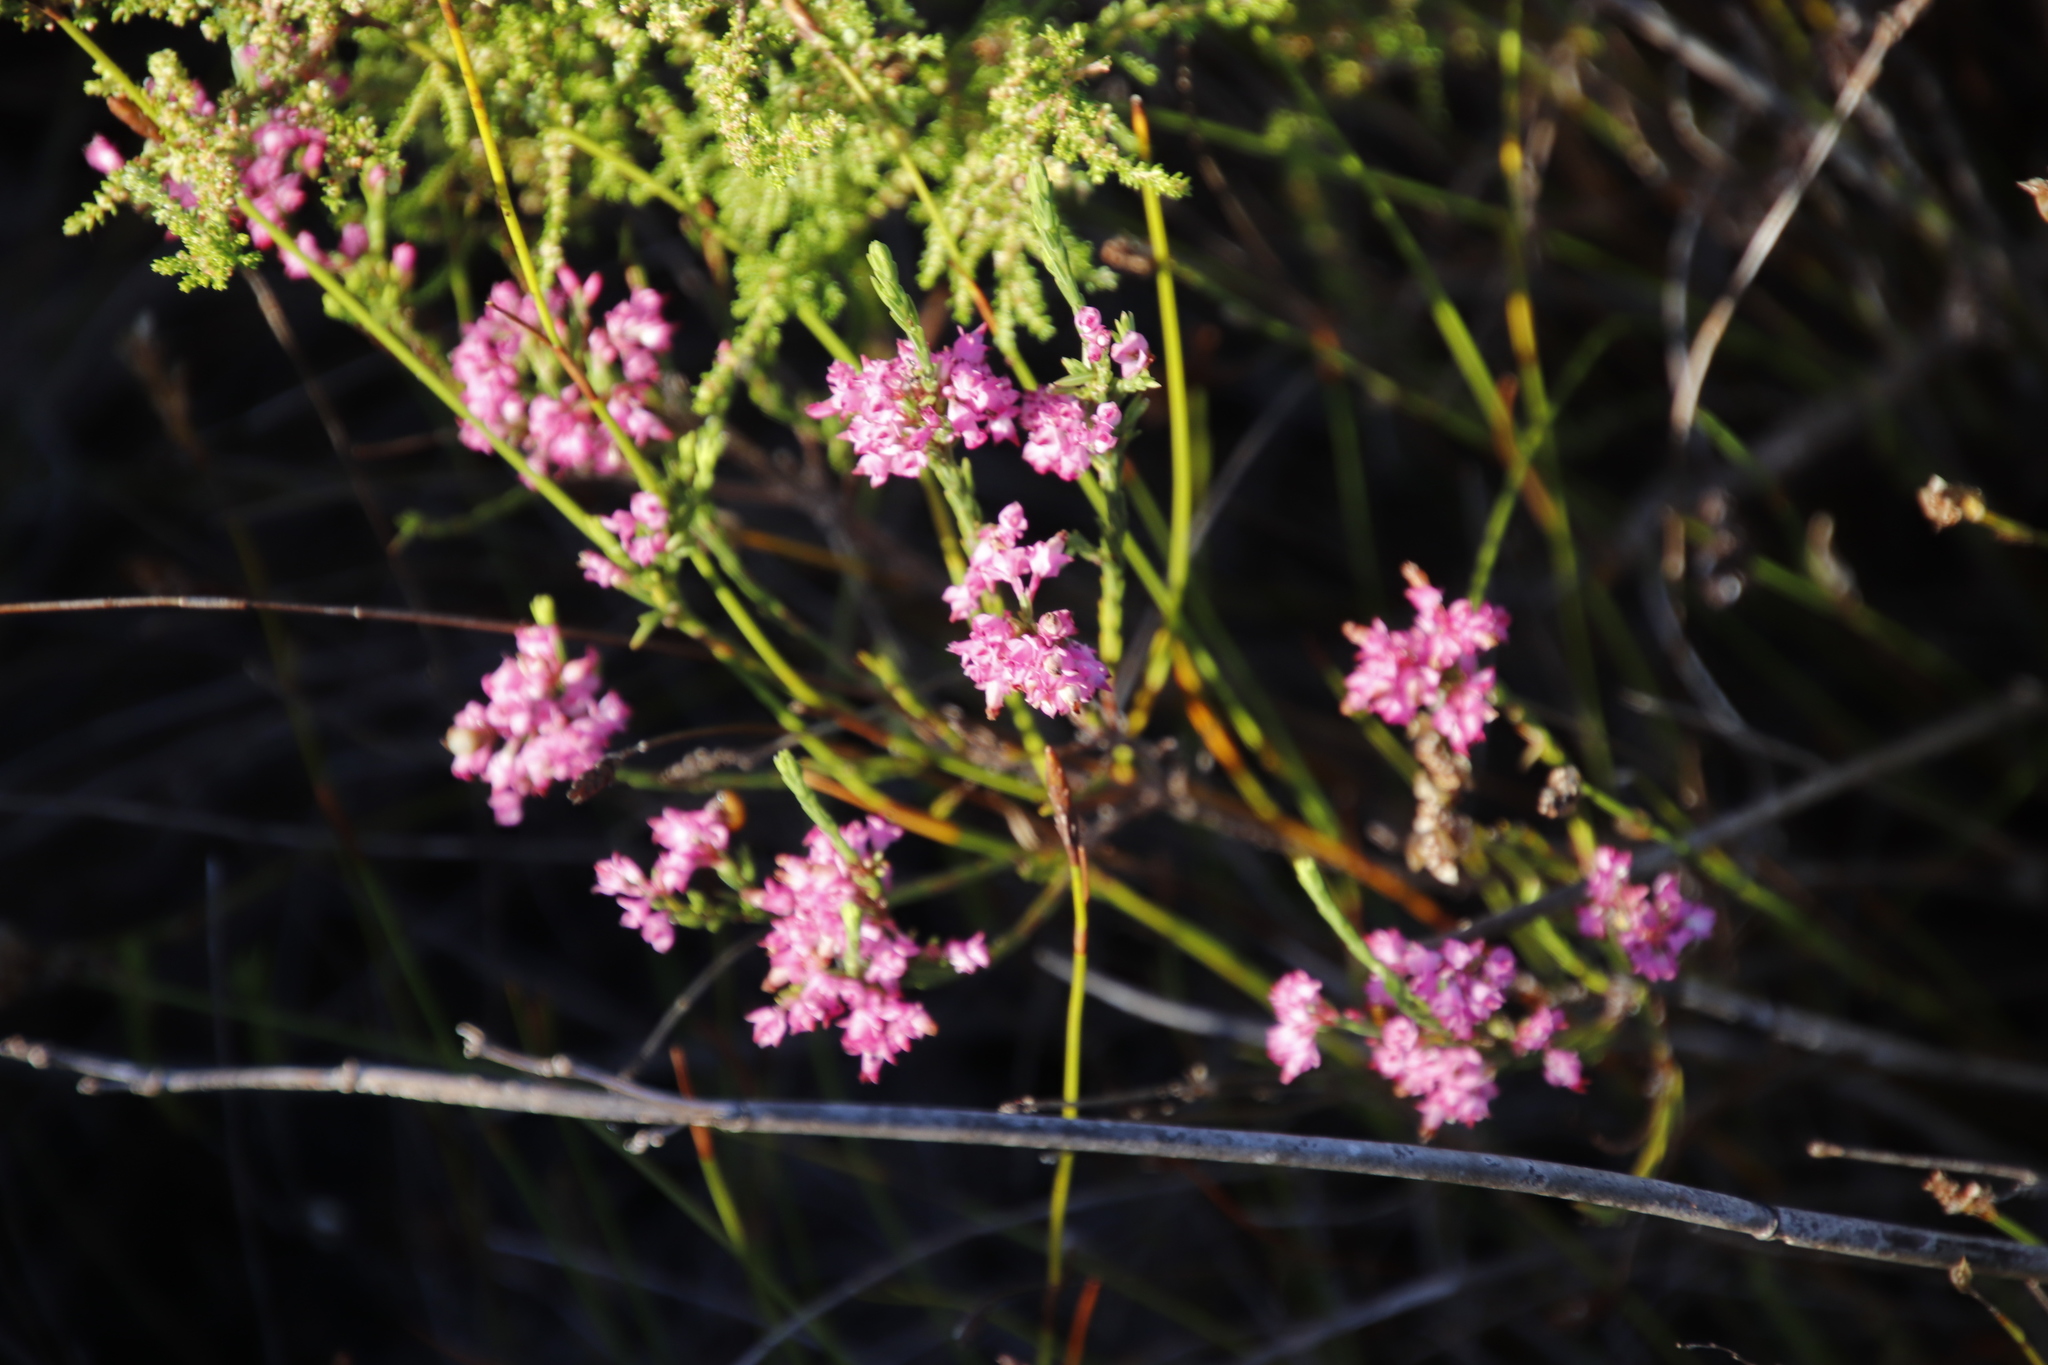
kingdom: Plantae
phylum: Tracheophyta
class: Magnoliopsida
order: Ericales
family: Ericaceae
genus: Erica
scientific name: Erica corifolia
